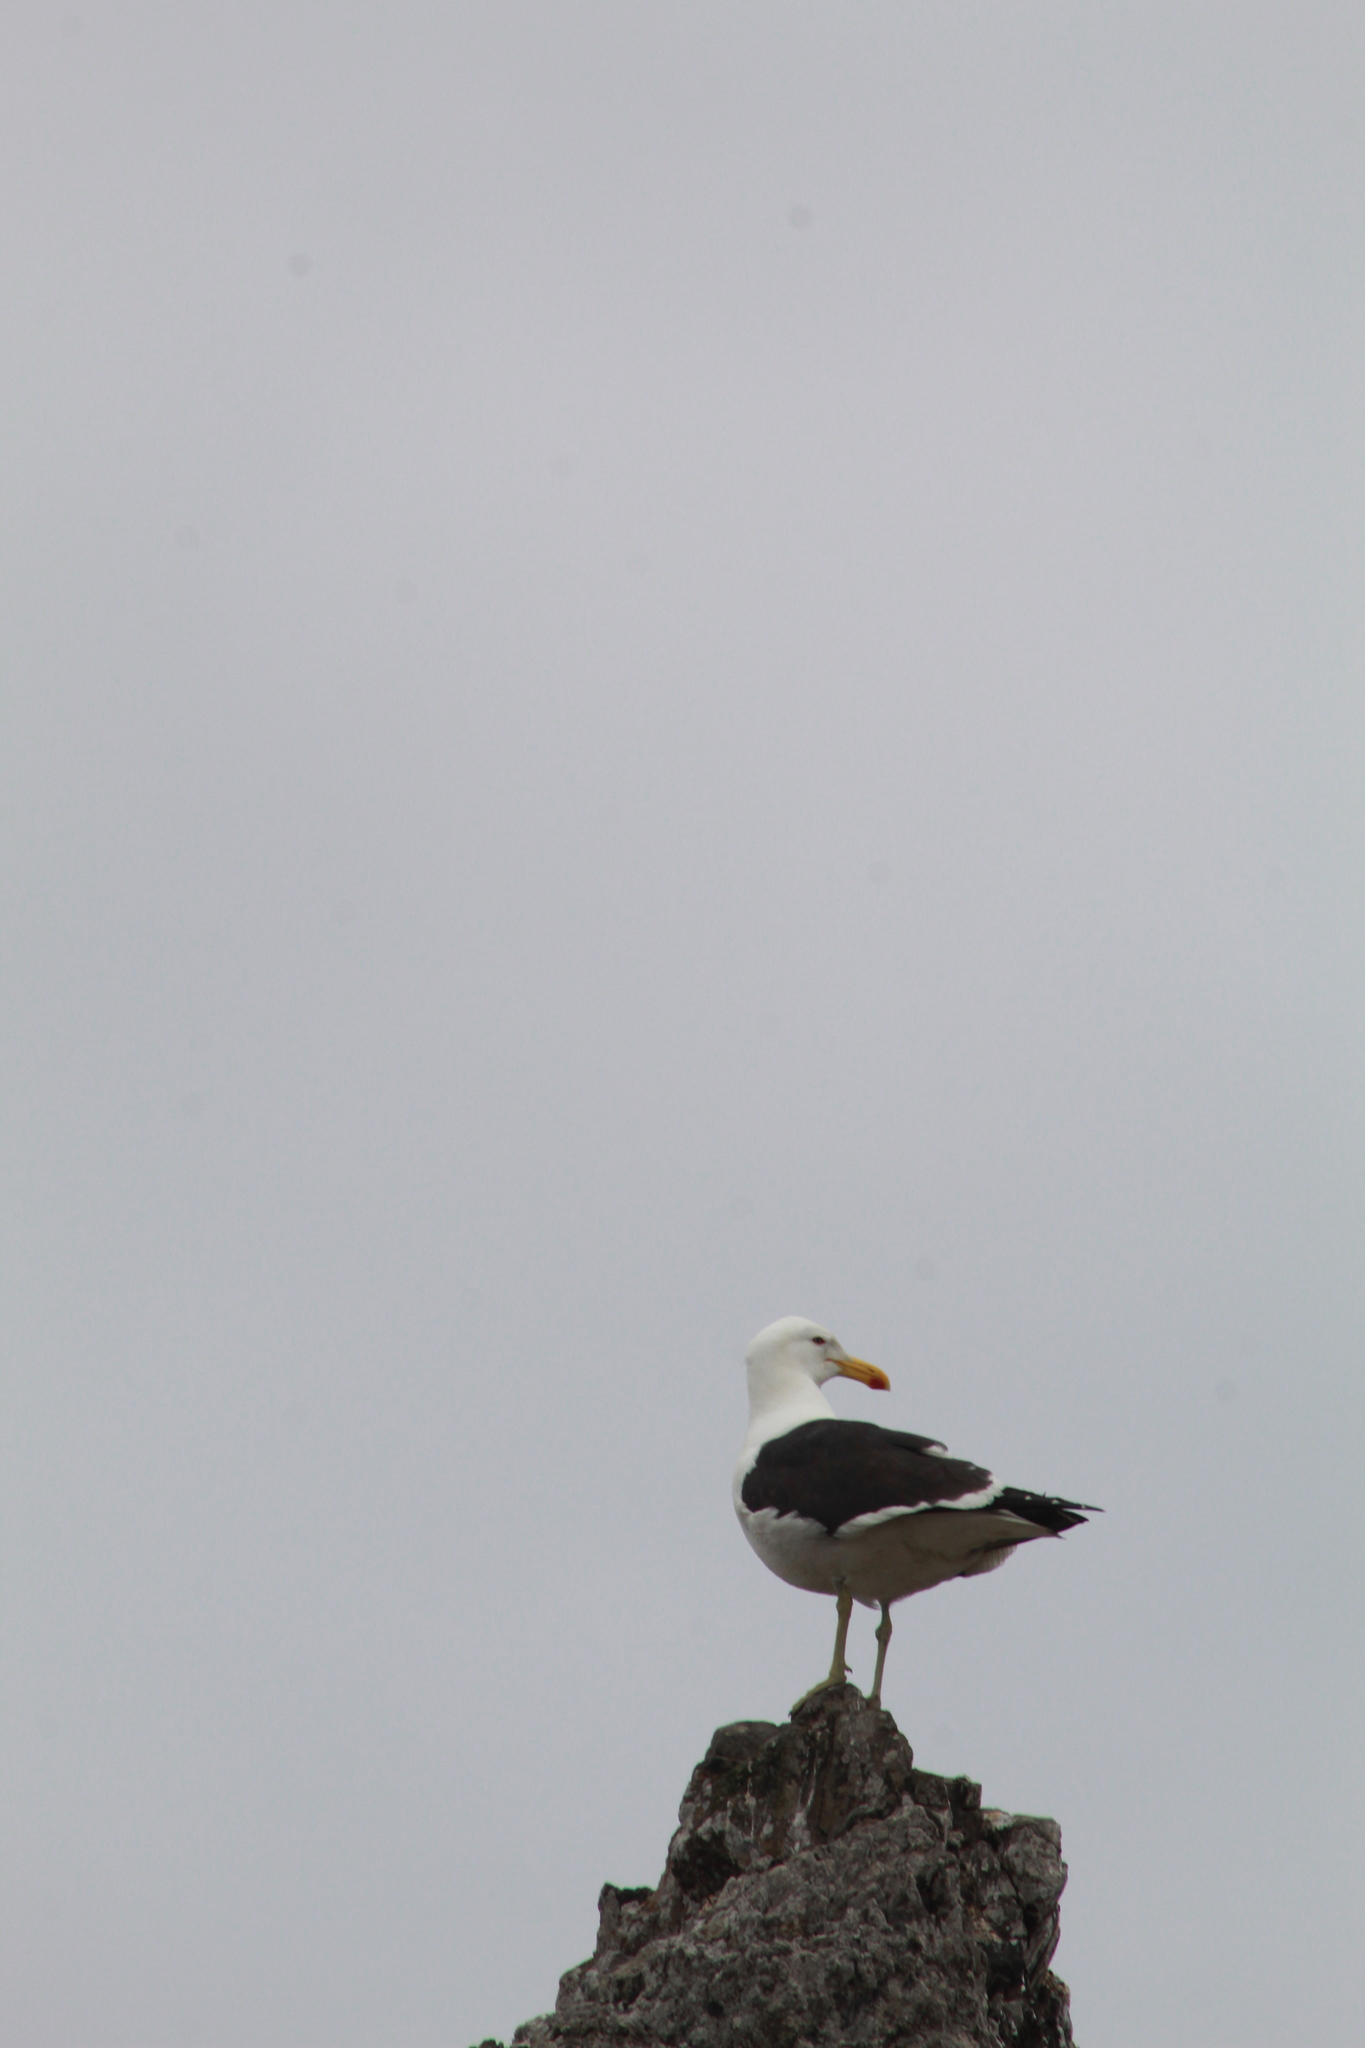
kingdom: Animalia
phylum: Chordata
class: Aves
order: Charadriiformes
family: Laridae
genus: Larus
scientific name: Larus dominicanus
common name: Kelp gull
